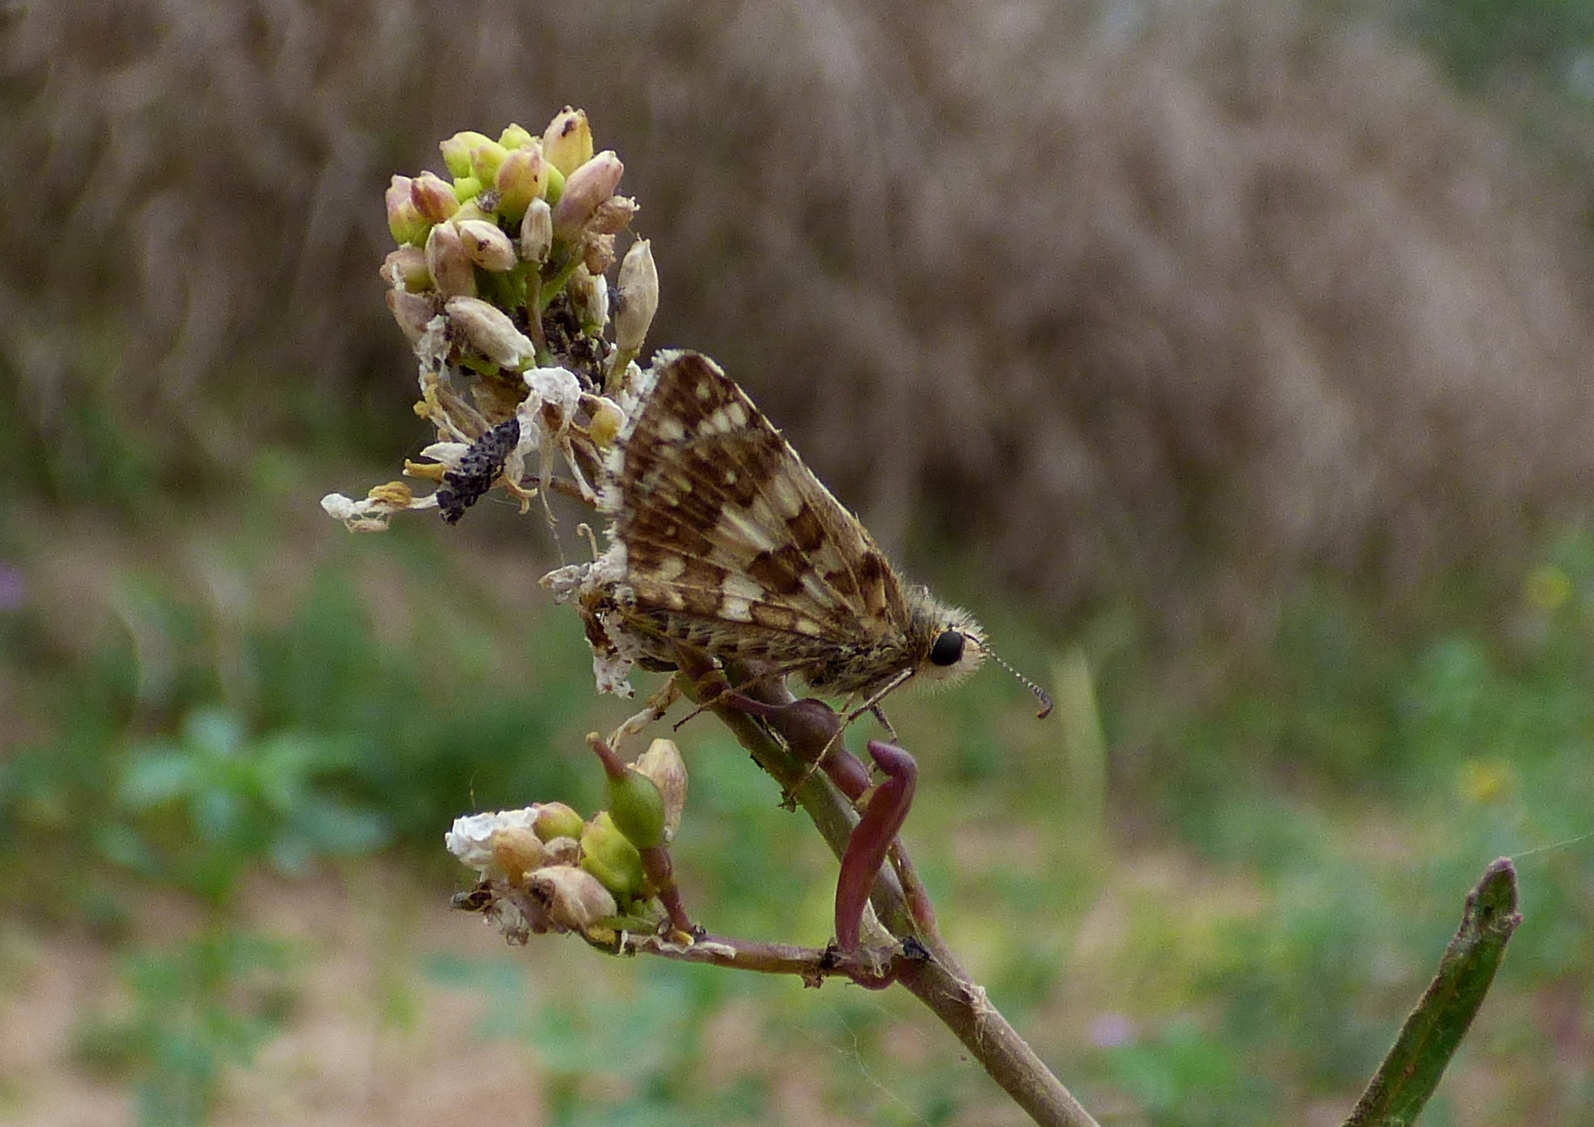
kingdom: Animalia
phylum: Arthropoda
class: Insecta
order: Lepidoptera
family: Hesperiidae
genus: Burnsius
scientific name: Burnsius orcynoides
